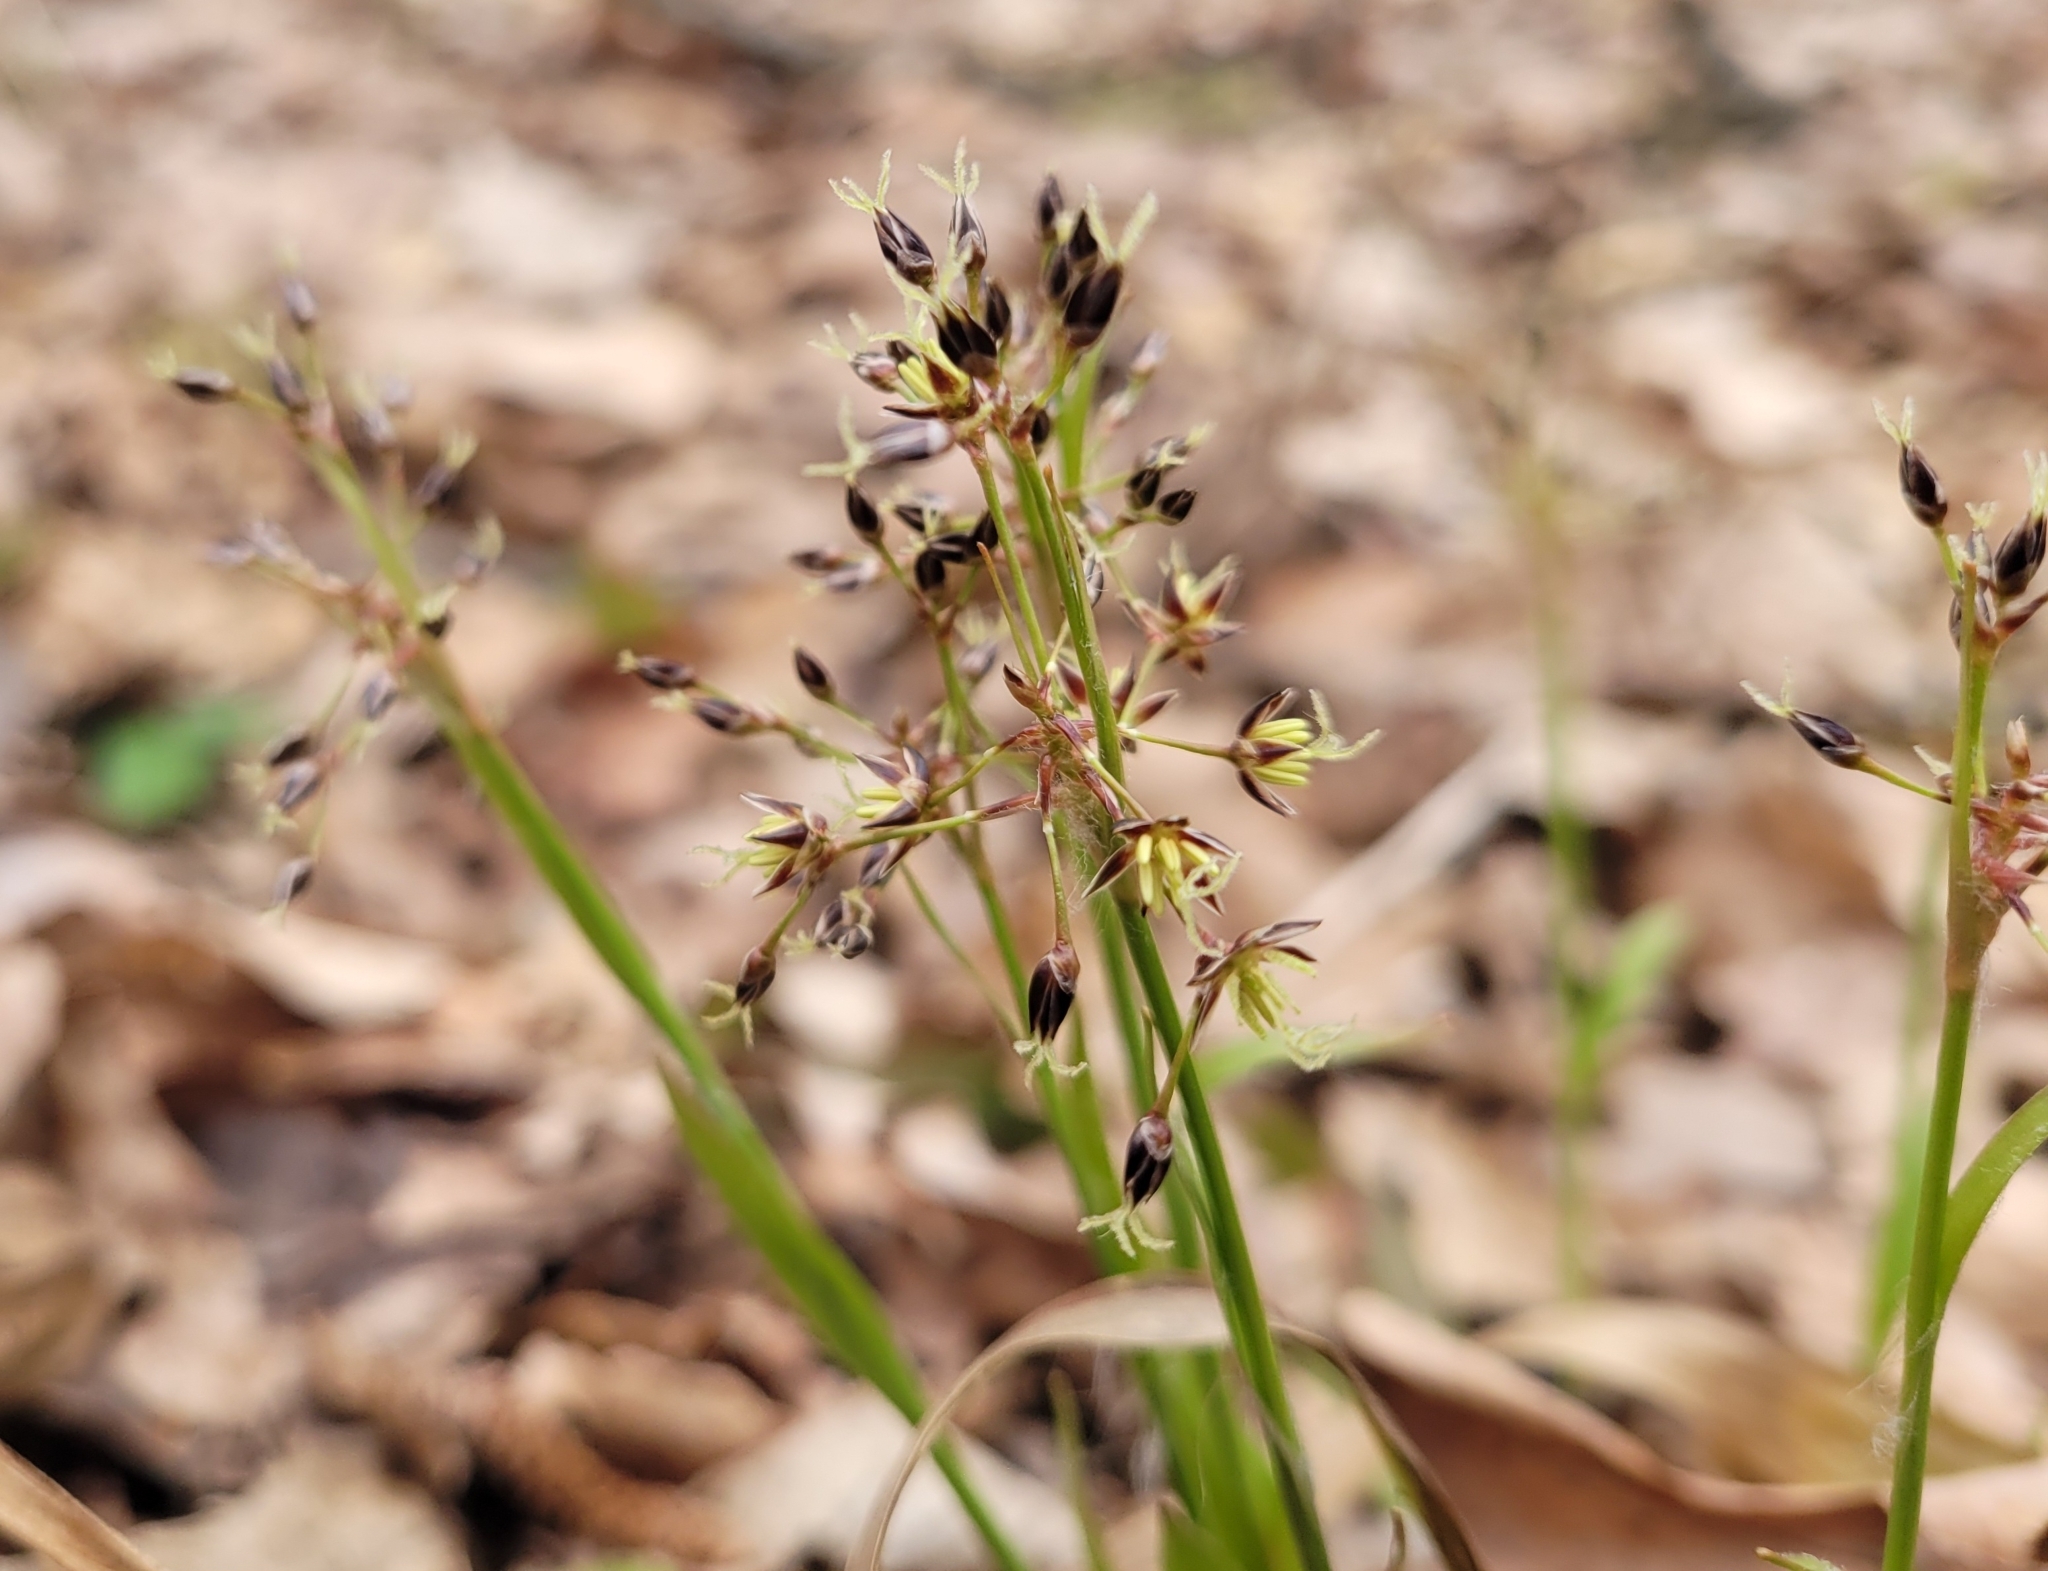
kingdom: Plantae
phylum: Tracheophyta
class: Liliopsida
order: Poales
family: Juncaceae
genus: Luzula
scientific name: Luzula pilosa
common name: Hairy wood-rush
